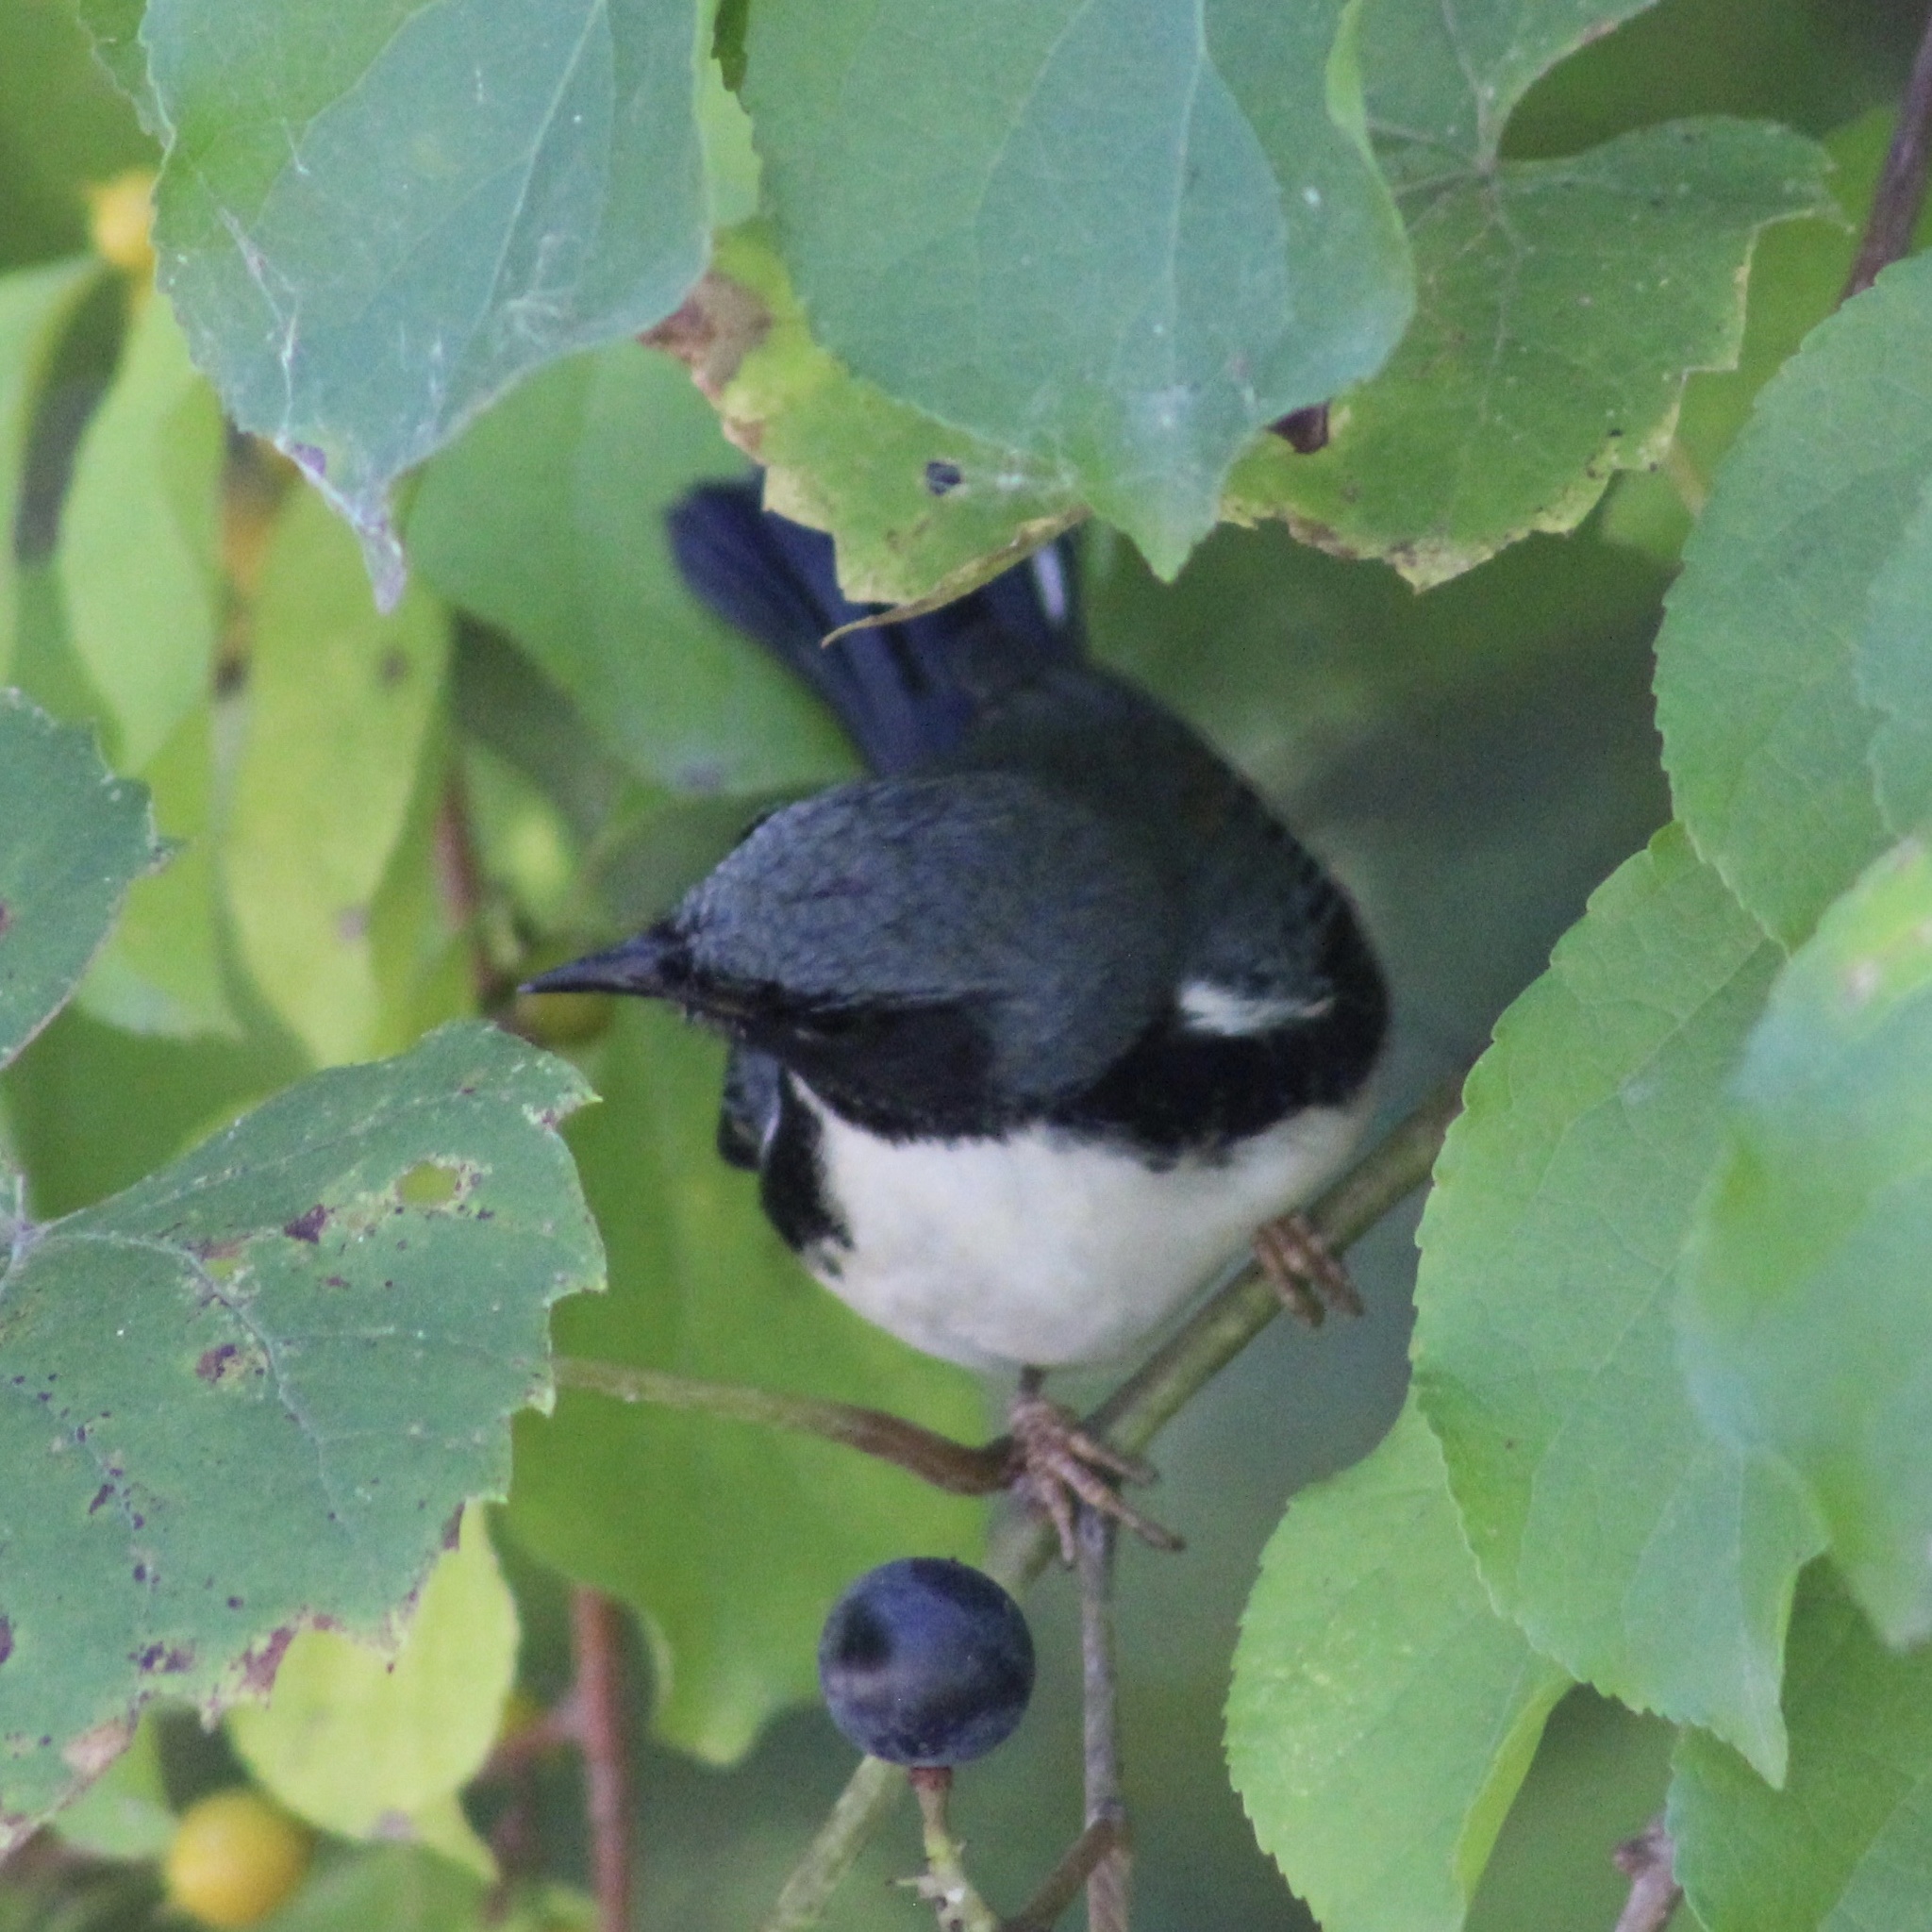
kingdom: Animalia
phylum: Chordata
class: Aves
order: Passeriformes
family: Parulidae
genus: Setophaga
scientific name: Setophaga caerulescens
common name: Black-throated blue warbler
